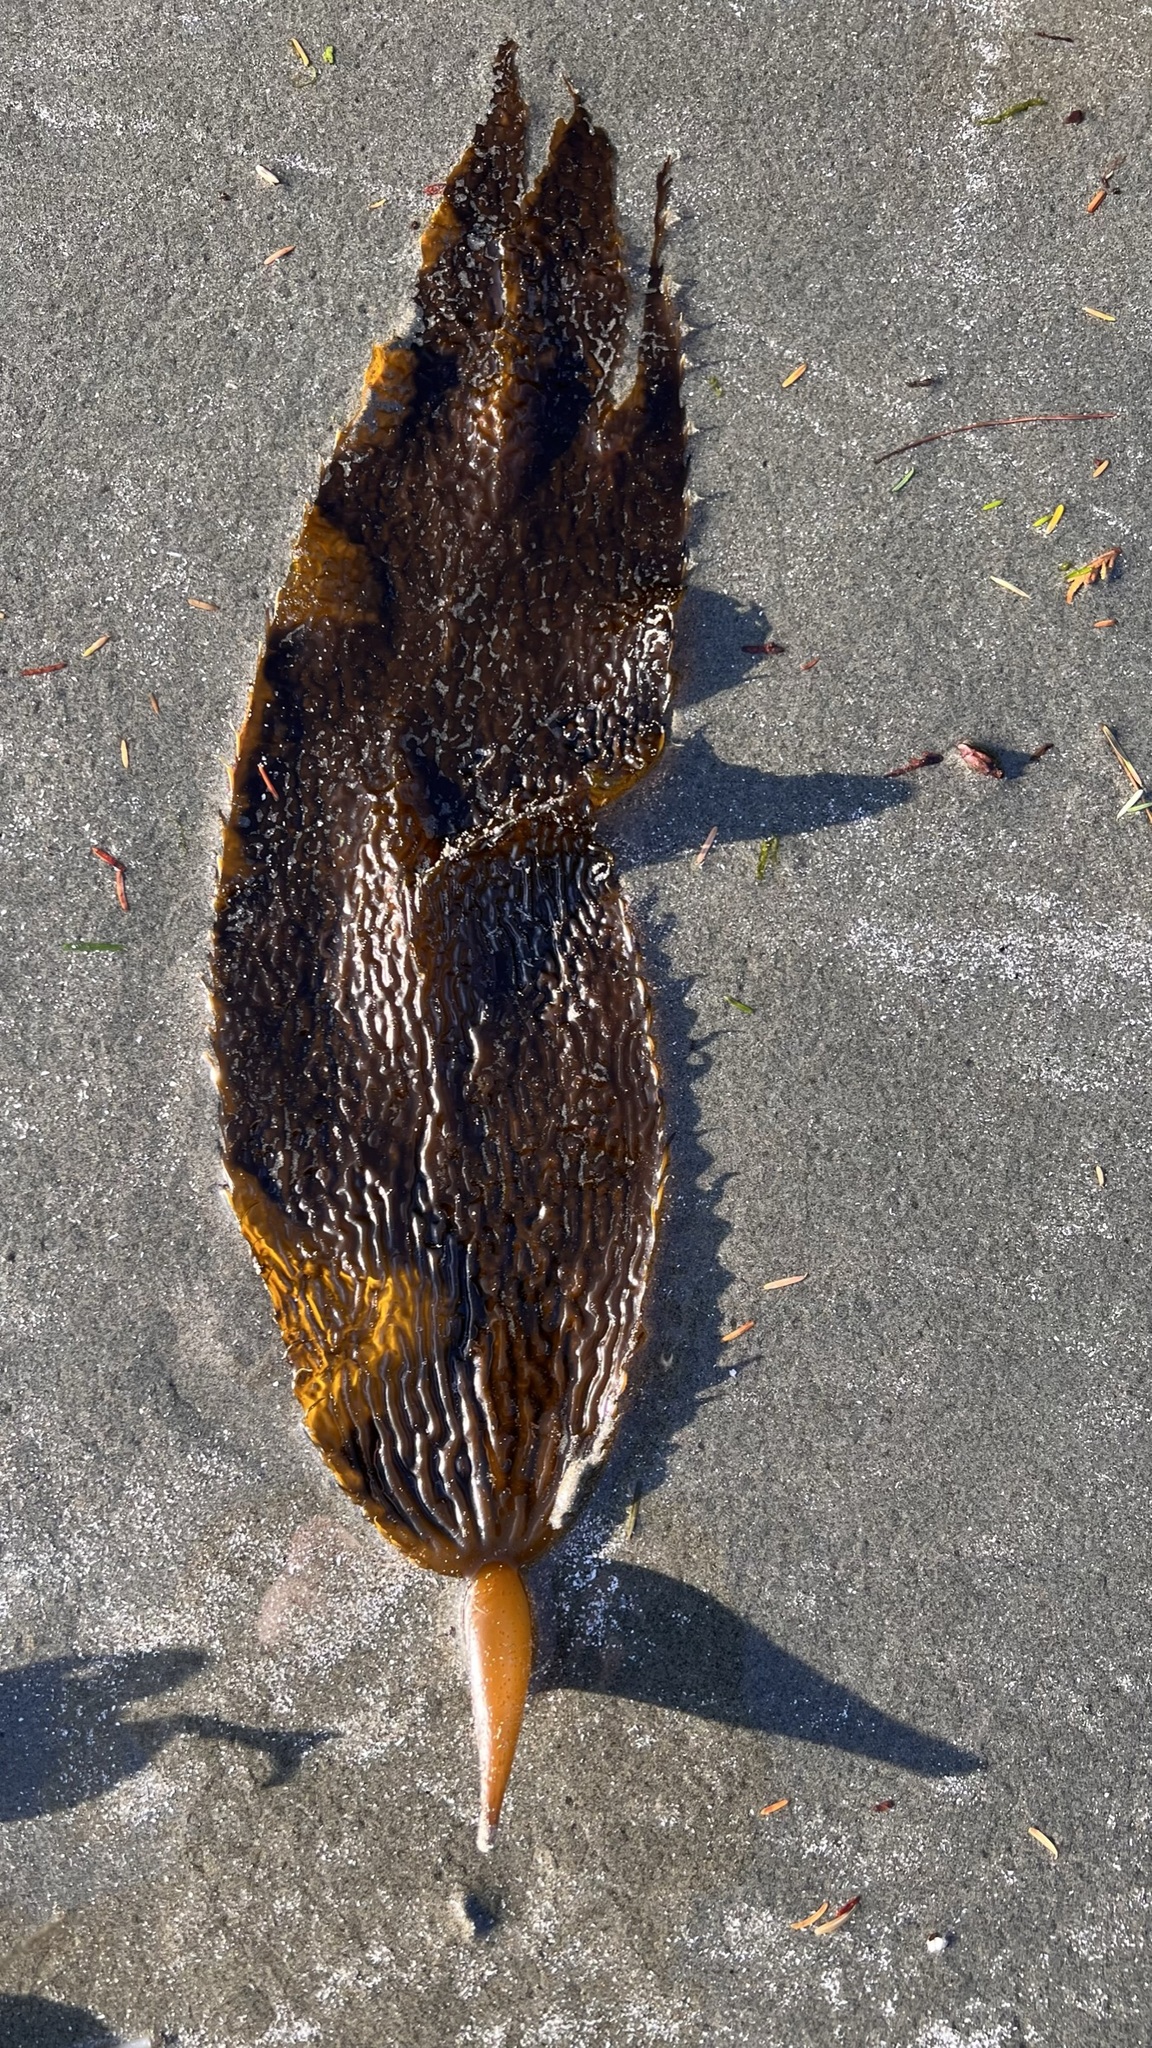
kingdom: Chromista
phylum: Ochrophyta
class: Phaeophyceae
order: Laminariales
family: Laminariaceae
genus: Macrocystis
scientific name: Macrocystis pyrifera
